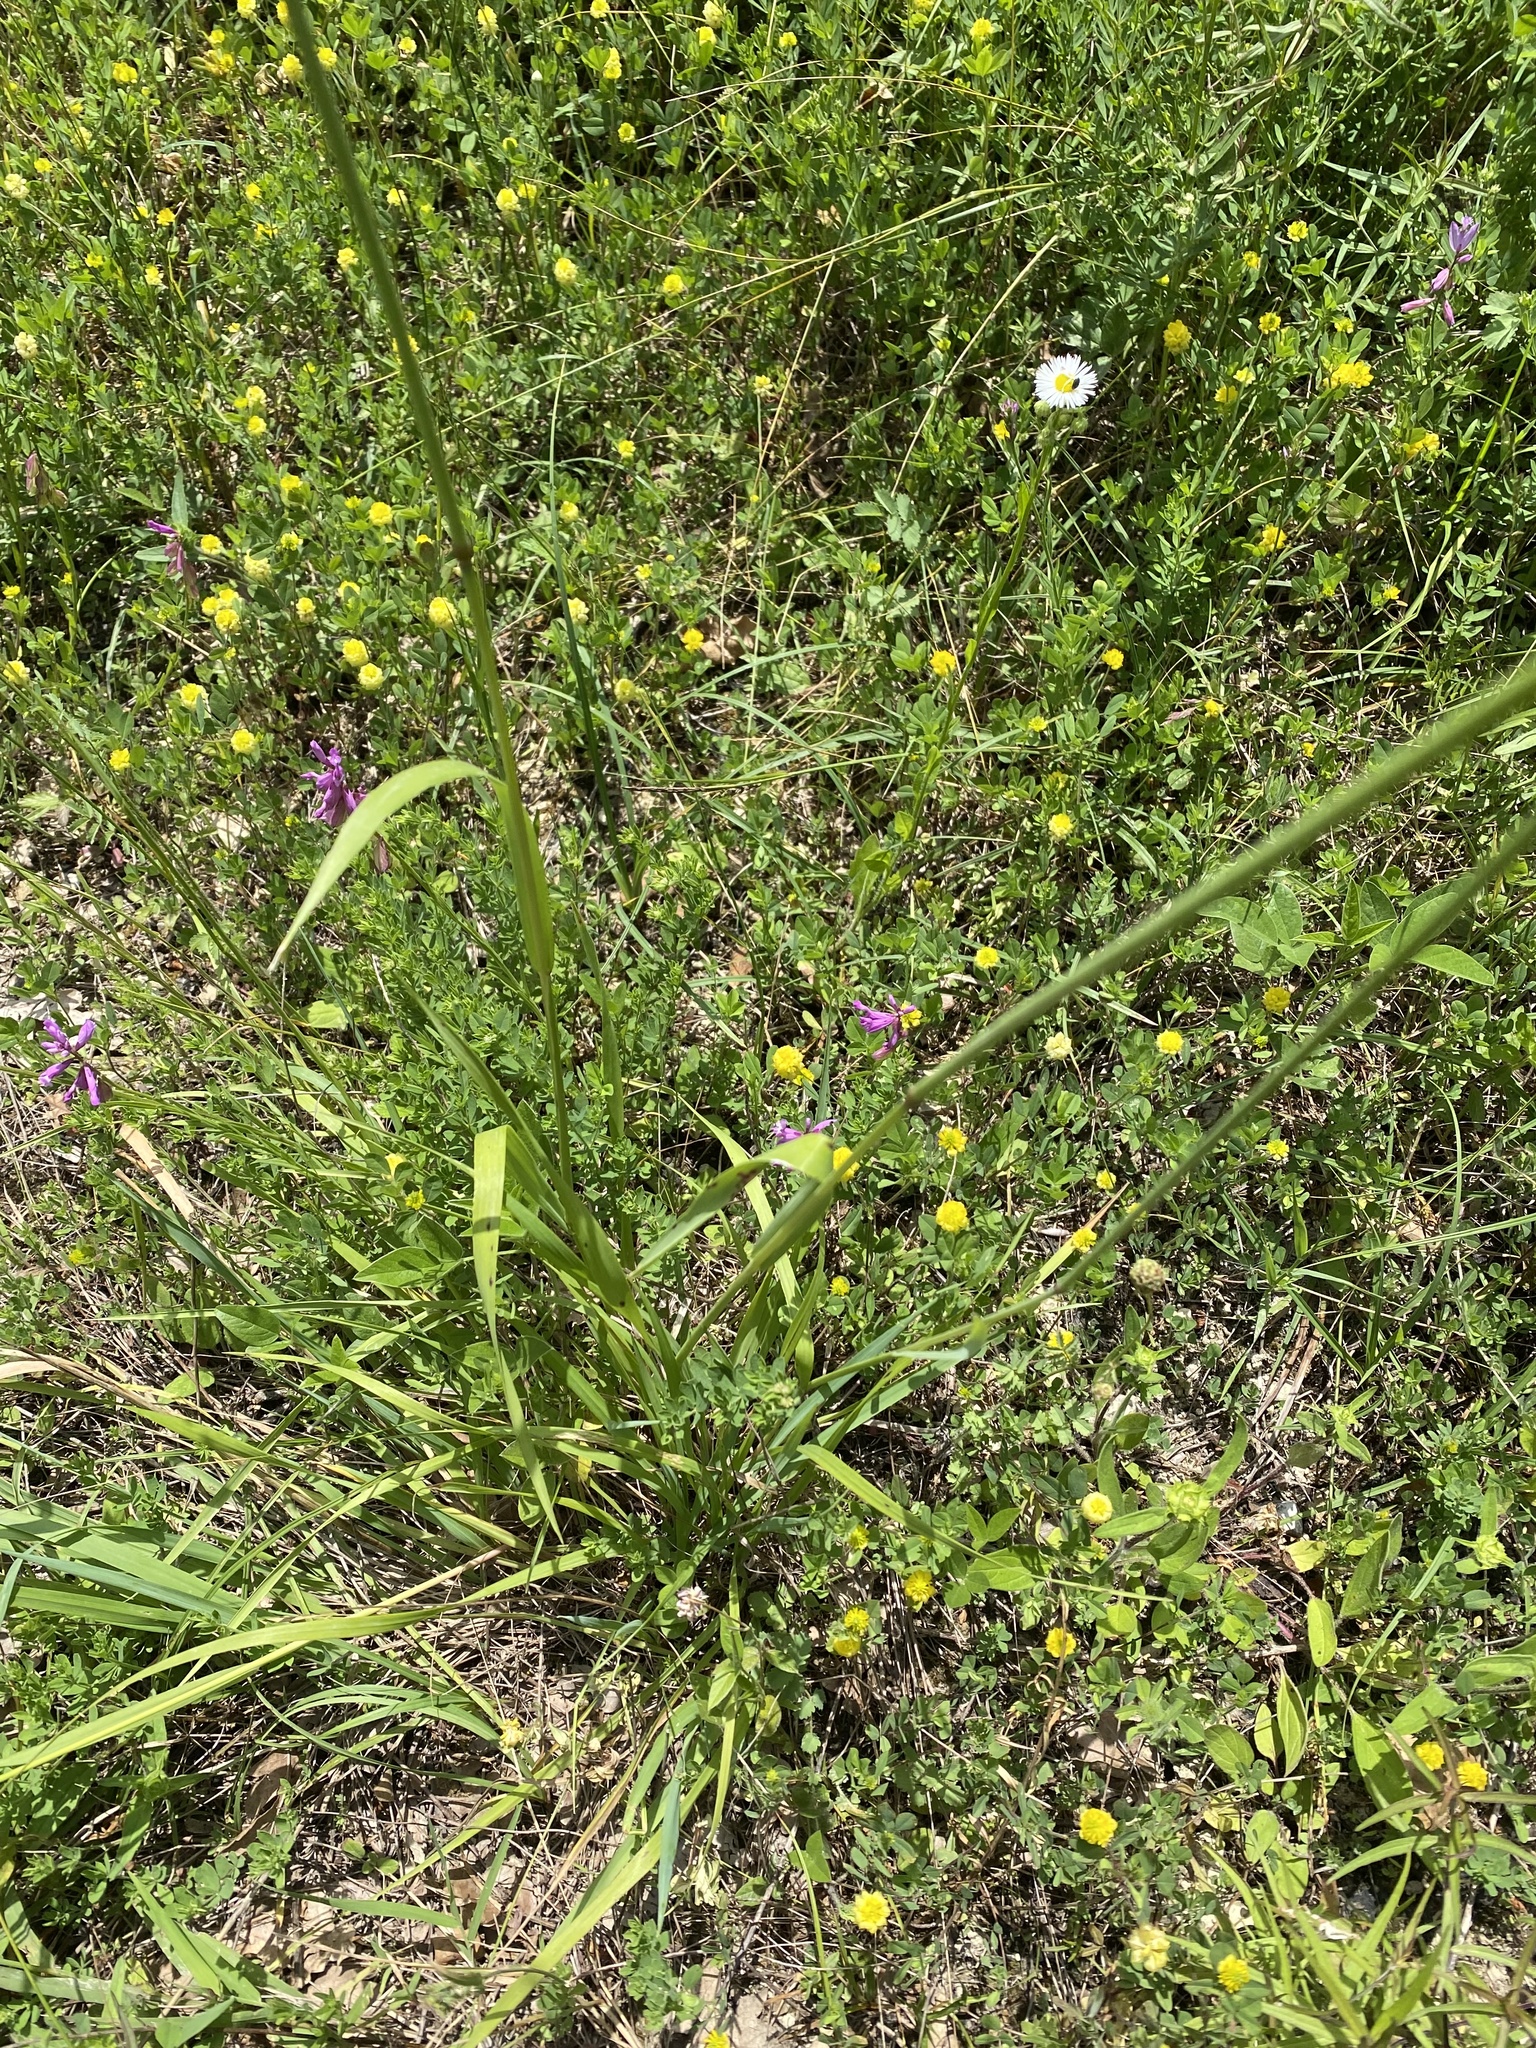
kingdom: Plantae
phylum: Tracheophyta
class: Liliopsida
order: Poales
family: Poaceae
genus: Briza
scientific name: Briza media
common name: Quaking grass
